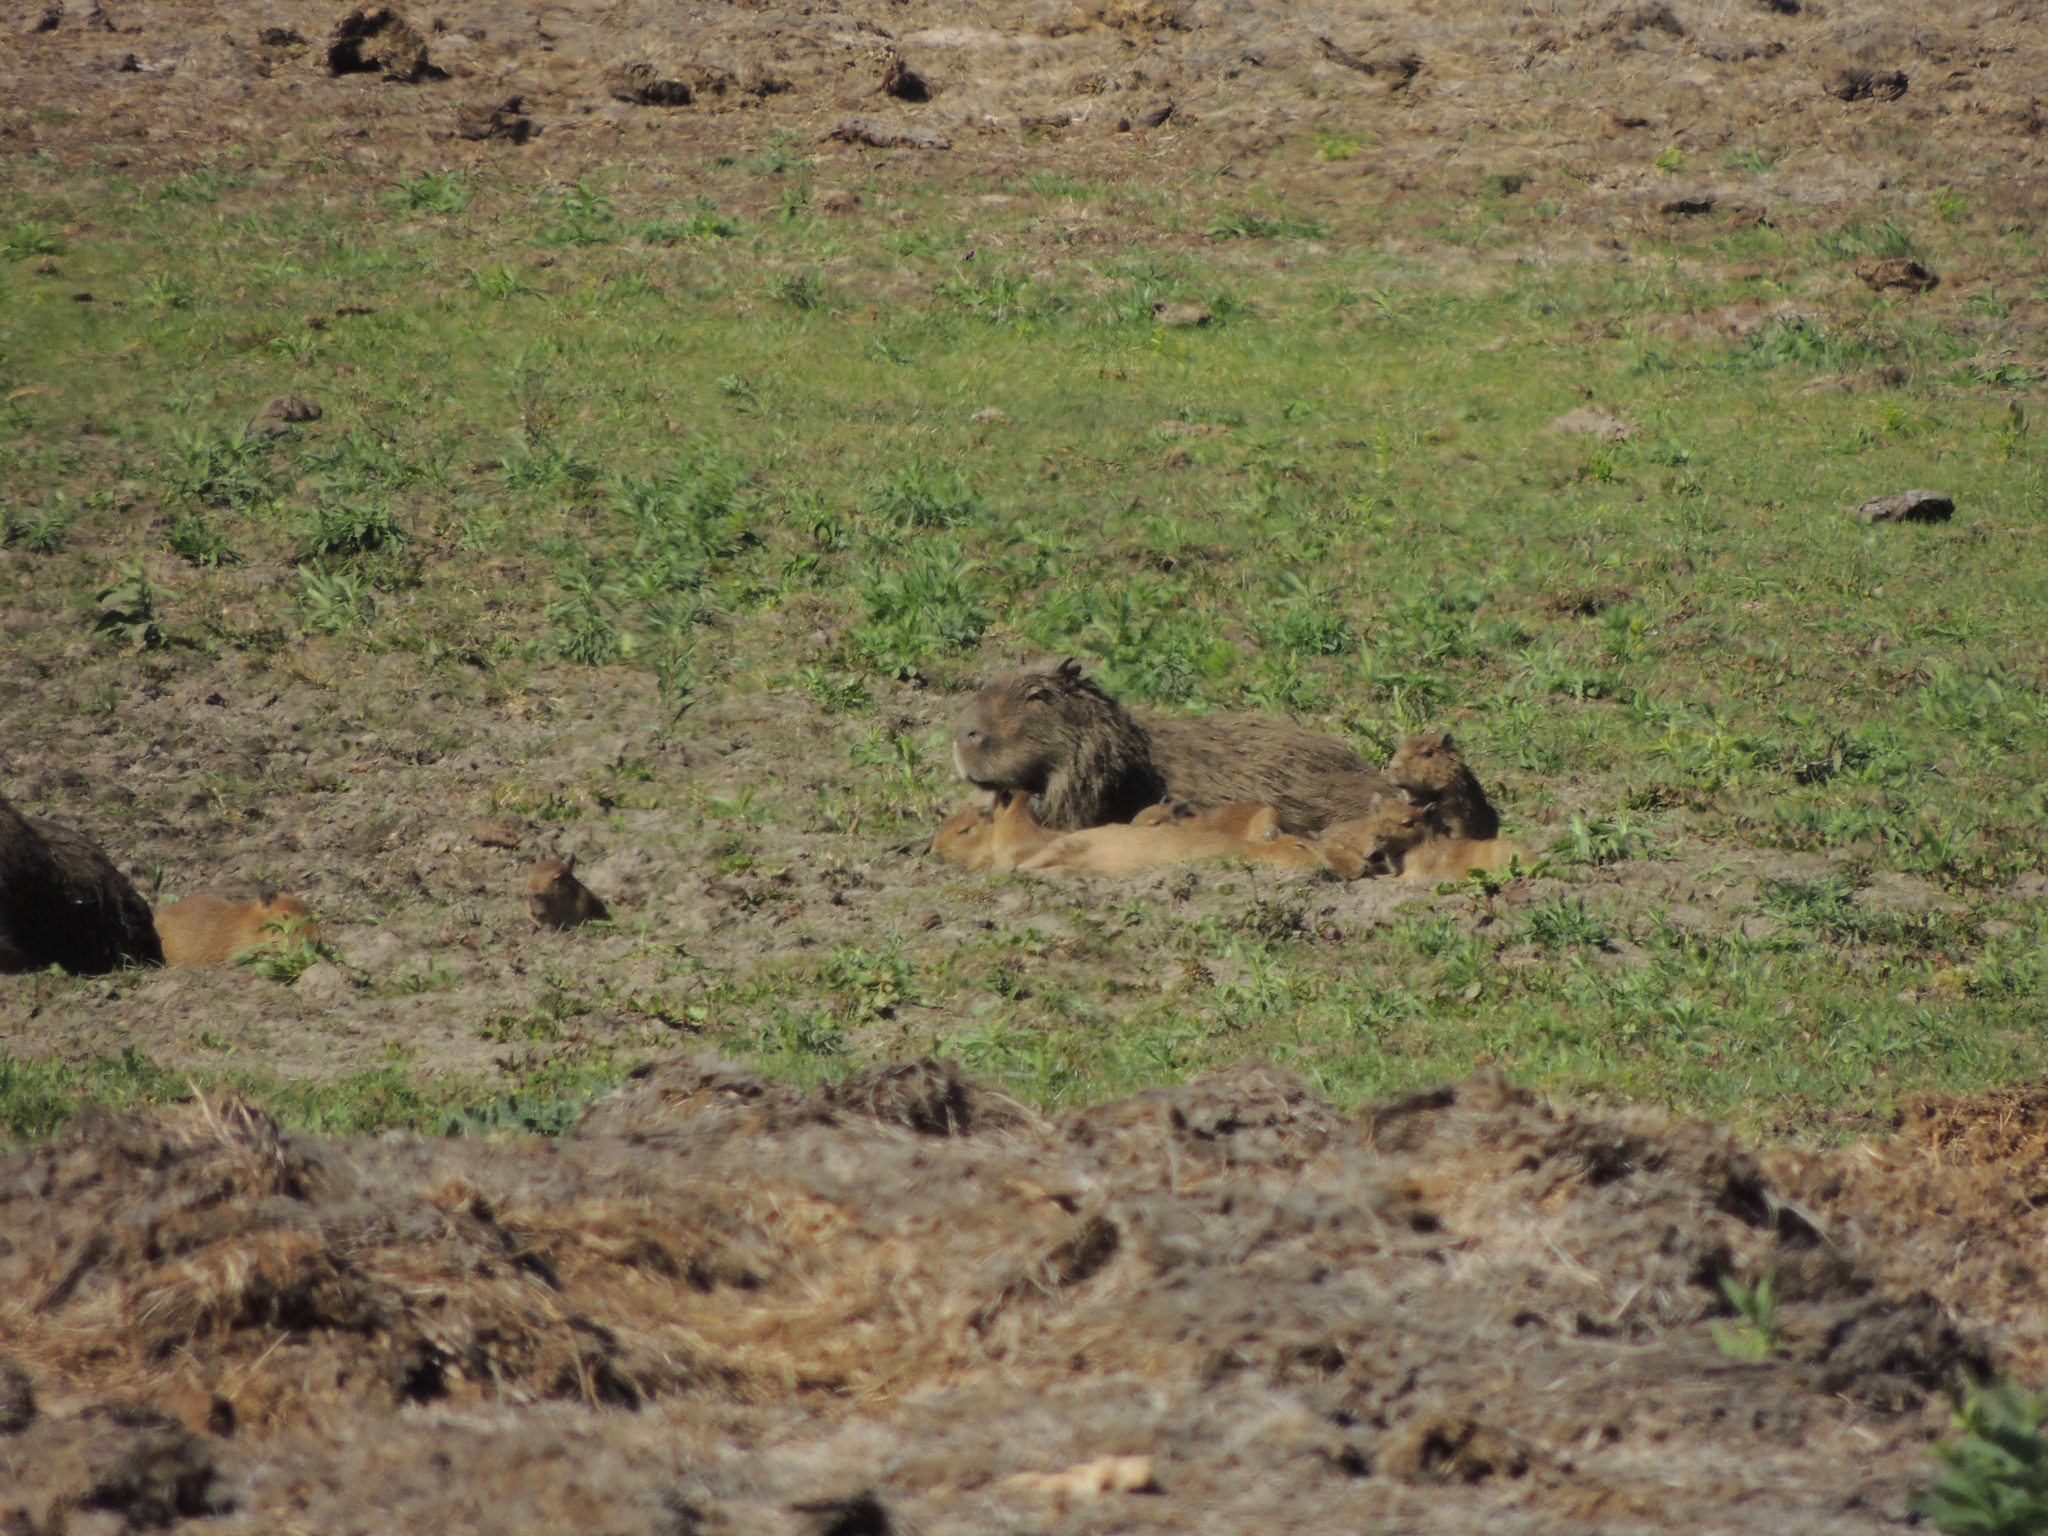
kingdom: Animalia
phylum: Chordata
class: Mammalia
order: Rodentia
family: Caviidae
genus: Hydrochoerus
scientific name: Hydrochoerus hydrochaeris
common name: Capybara
